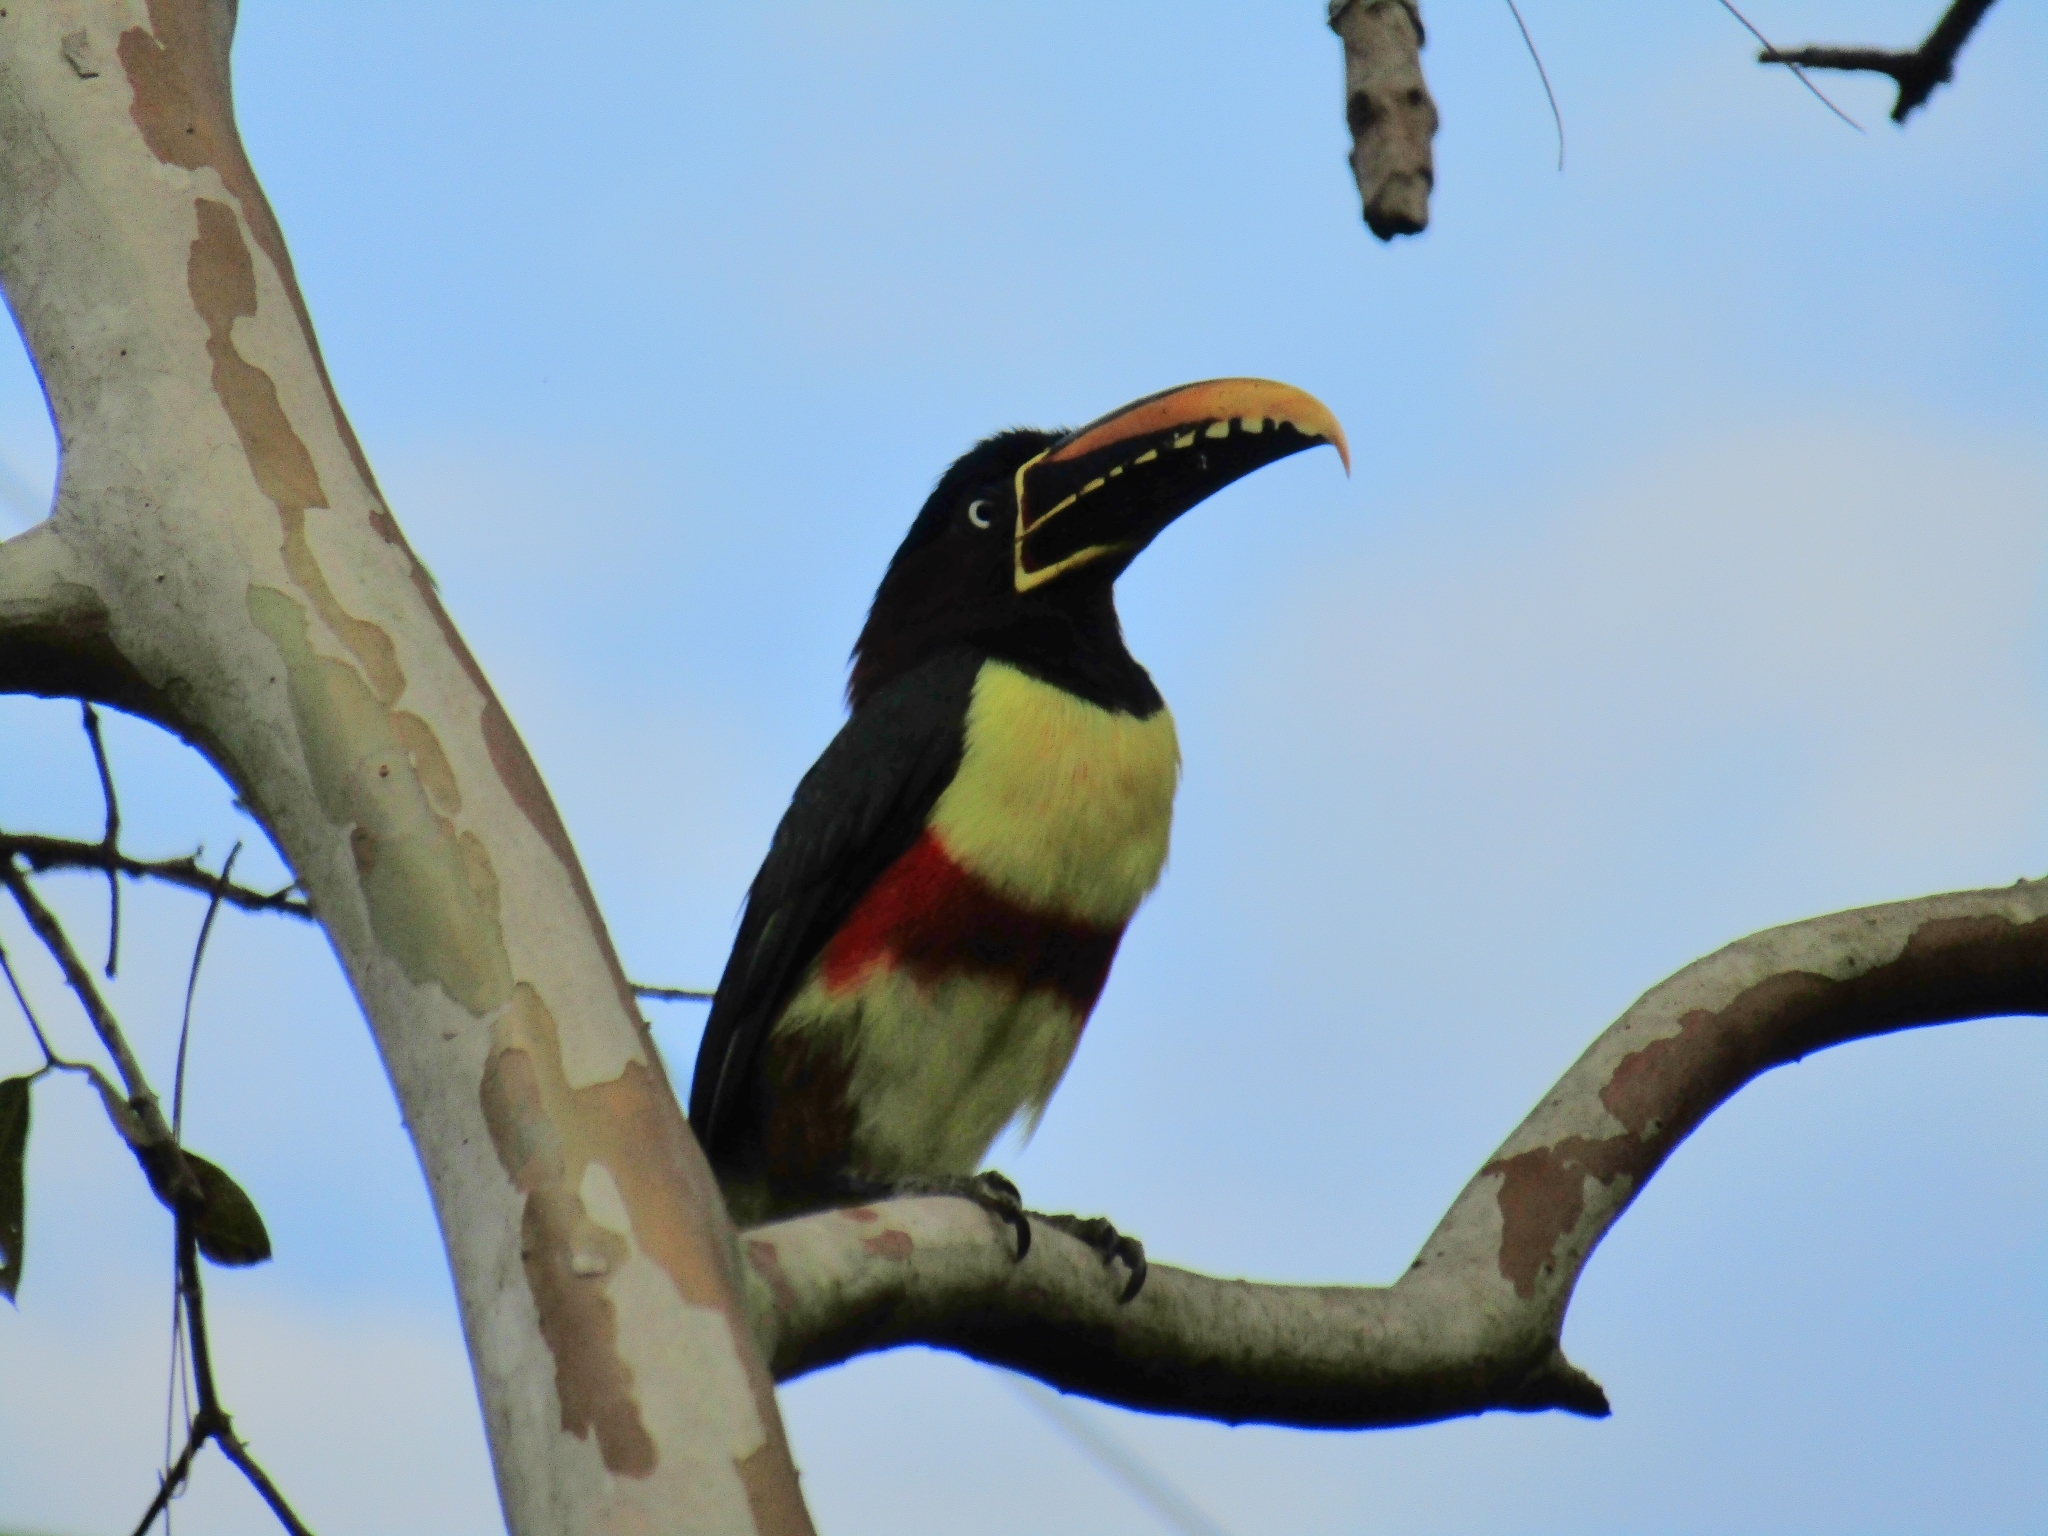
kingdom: Animalia
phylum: Chordata
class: Aves
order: Piciformes
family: Ramphastidae
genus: Pteroglossus
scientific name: Pteroglossus castanotis
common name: Chestnut-eared aracari
